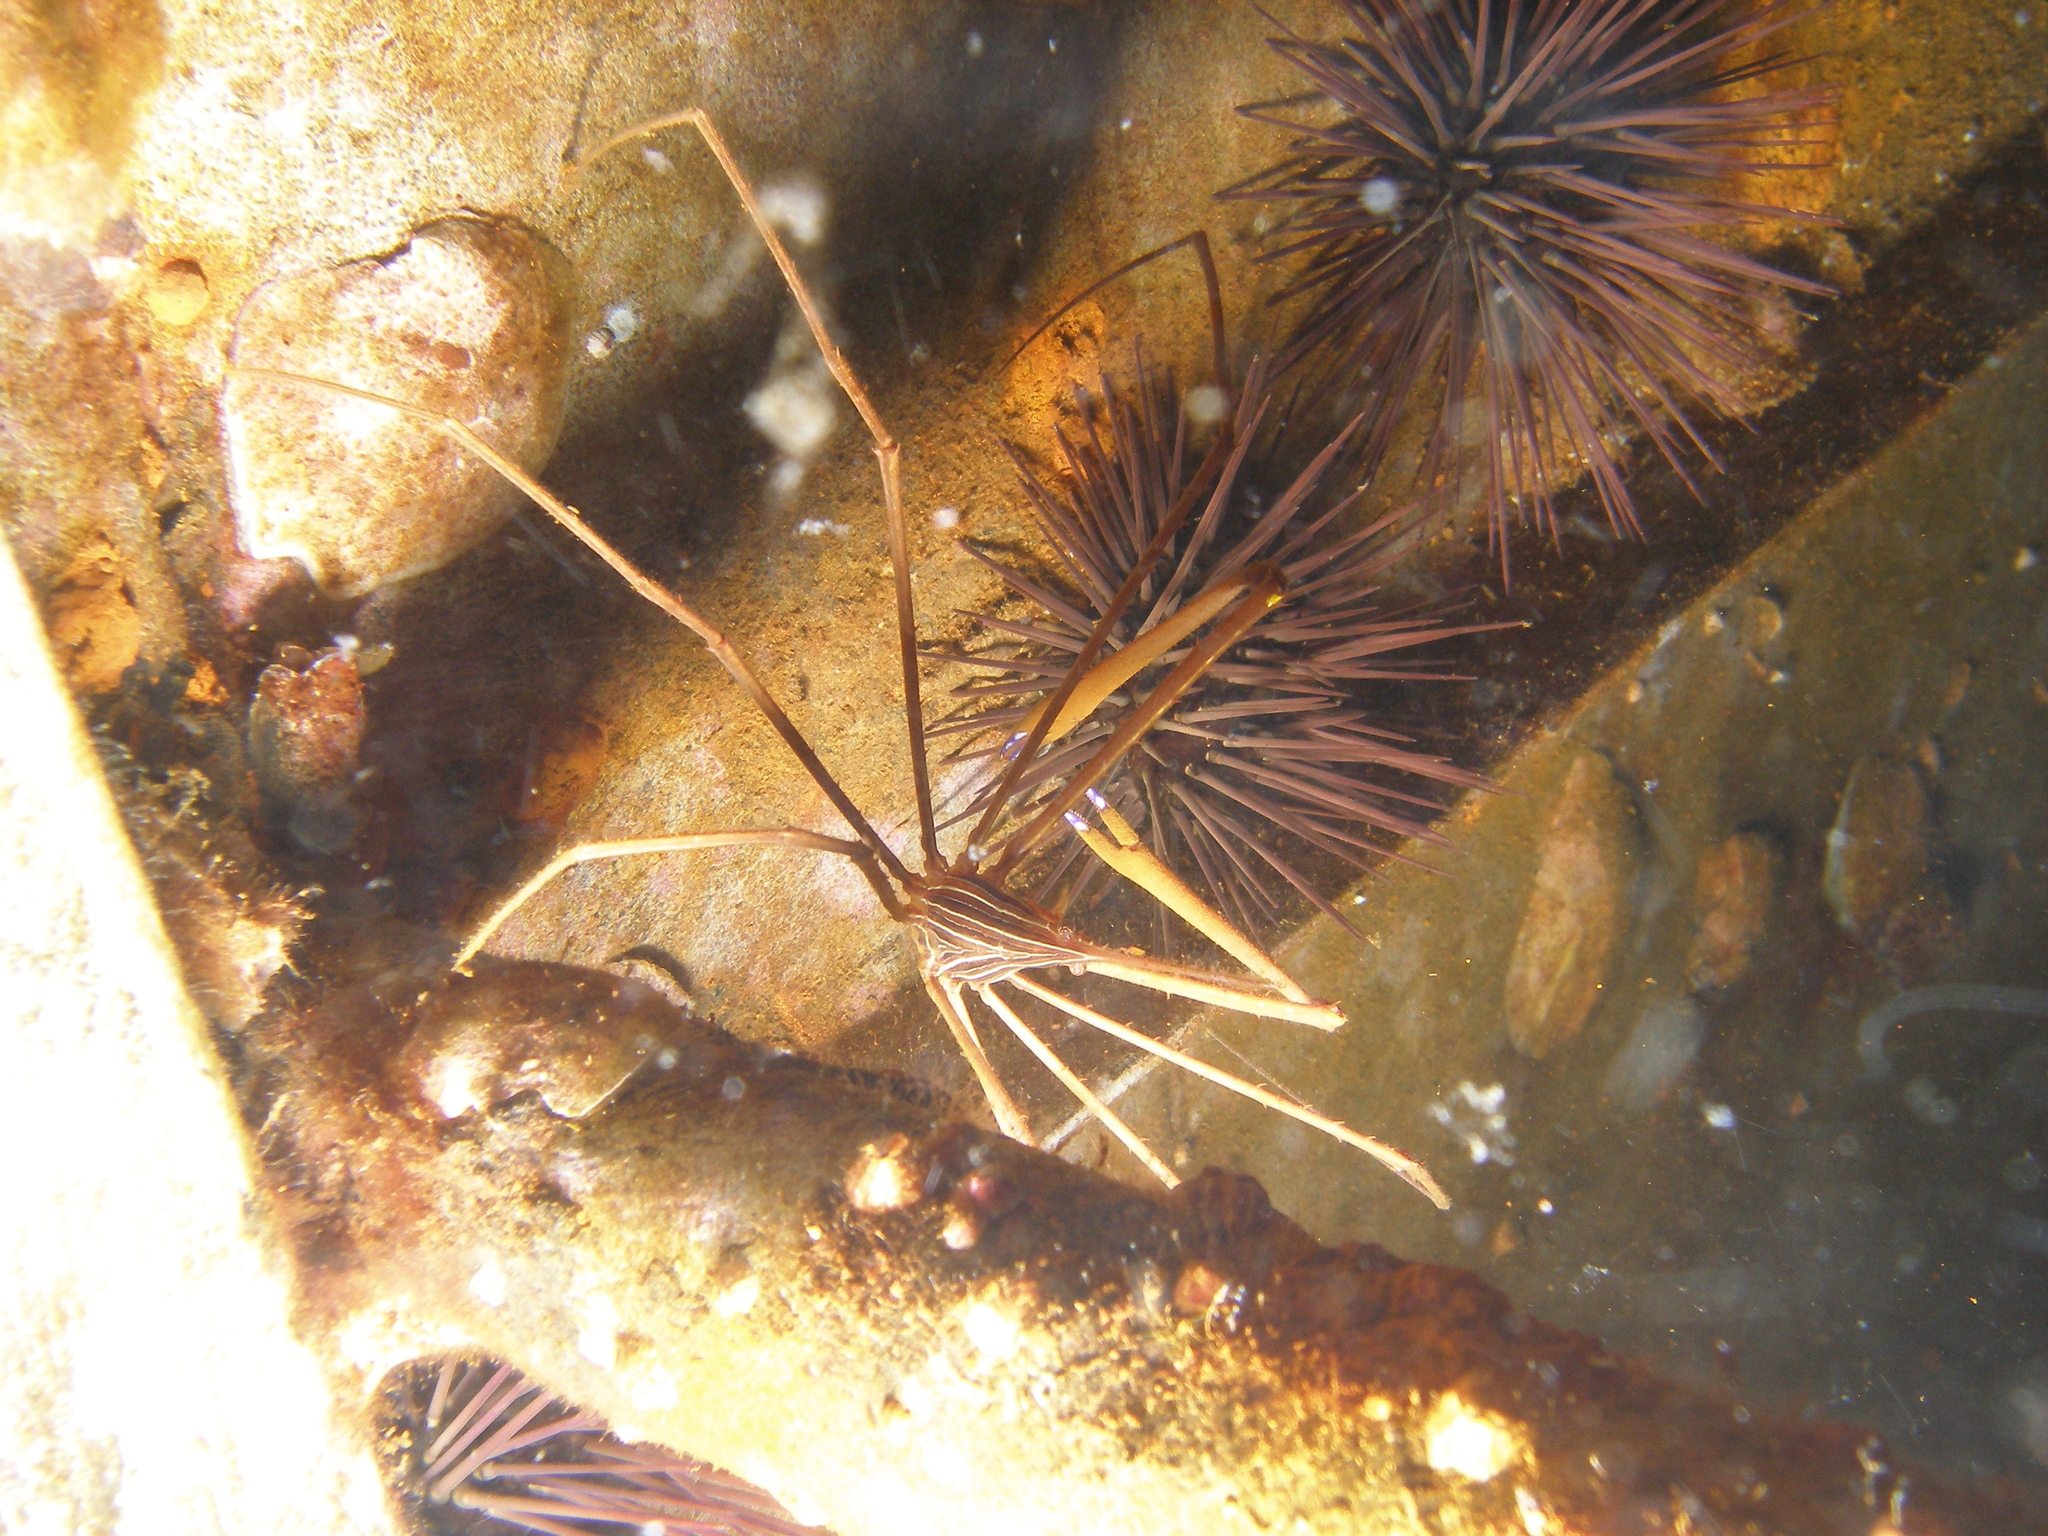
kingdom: Animalia
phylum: Arthropoda
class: Malacostraca
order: Decapoda
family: Inachoididae
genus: Stenorhynchus
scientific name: Stenorhynchus seticornis
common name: Arrow crab
